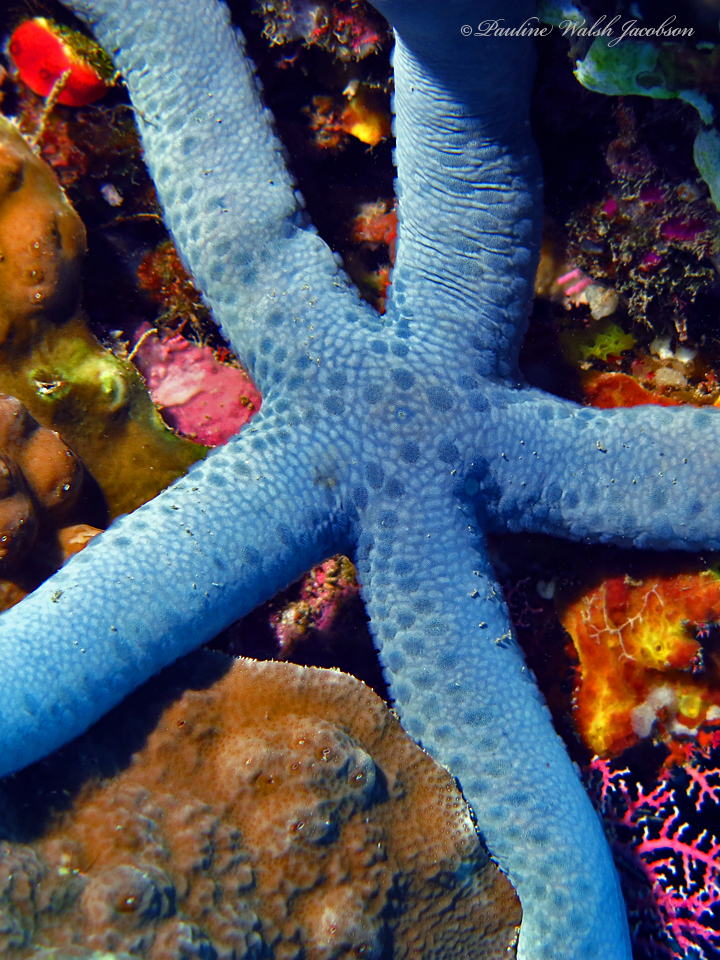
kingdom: Animalia
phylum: Echinodermata
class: Asteroidea
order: Valvatida
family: Ophidiasteridae
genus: Linckia
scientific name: Linckia laevigata
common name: Azure sea star
